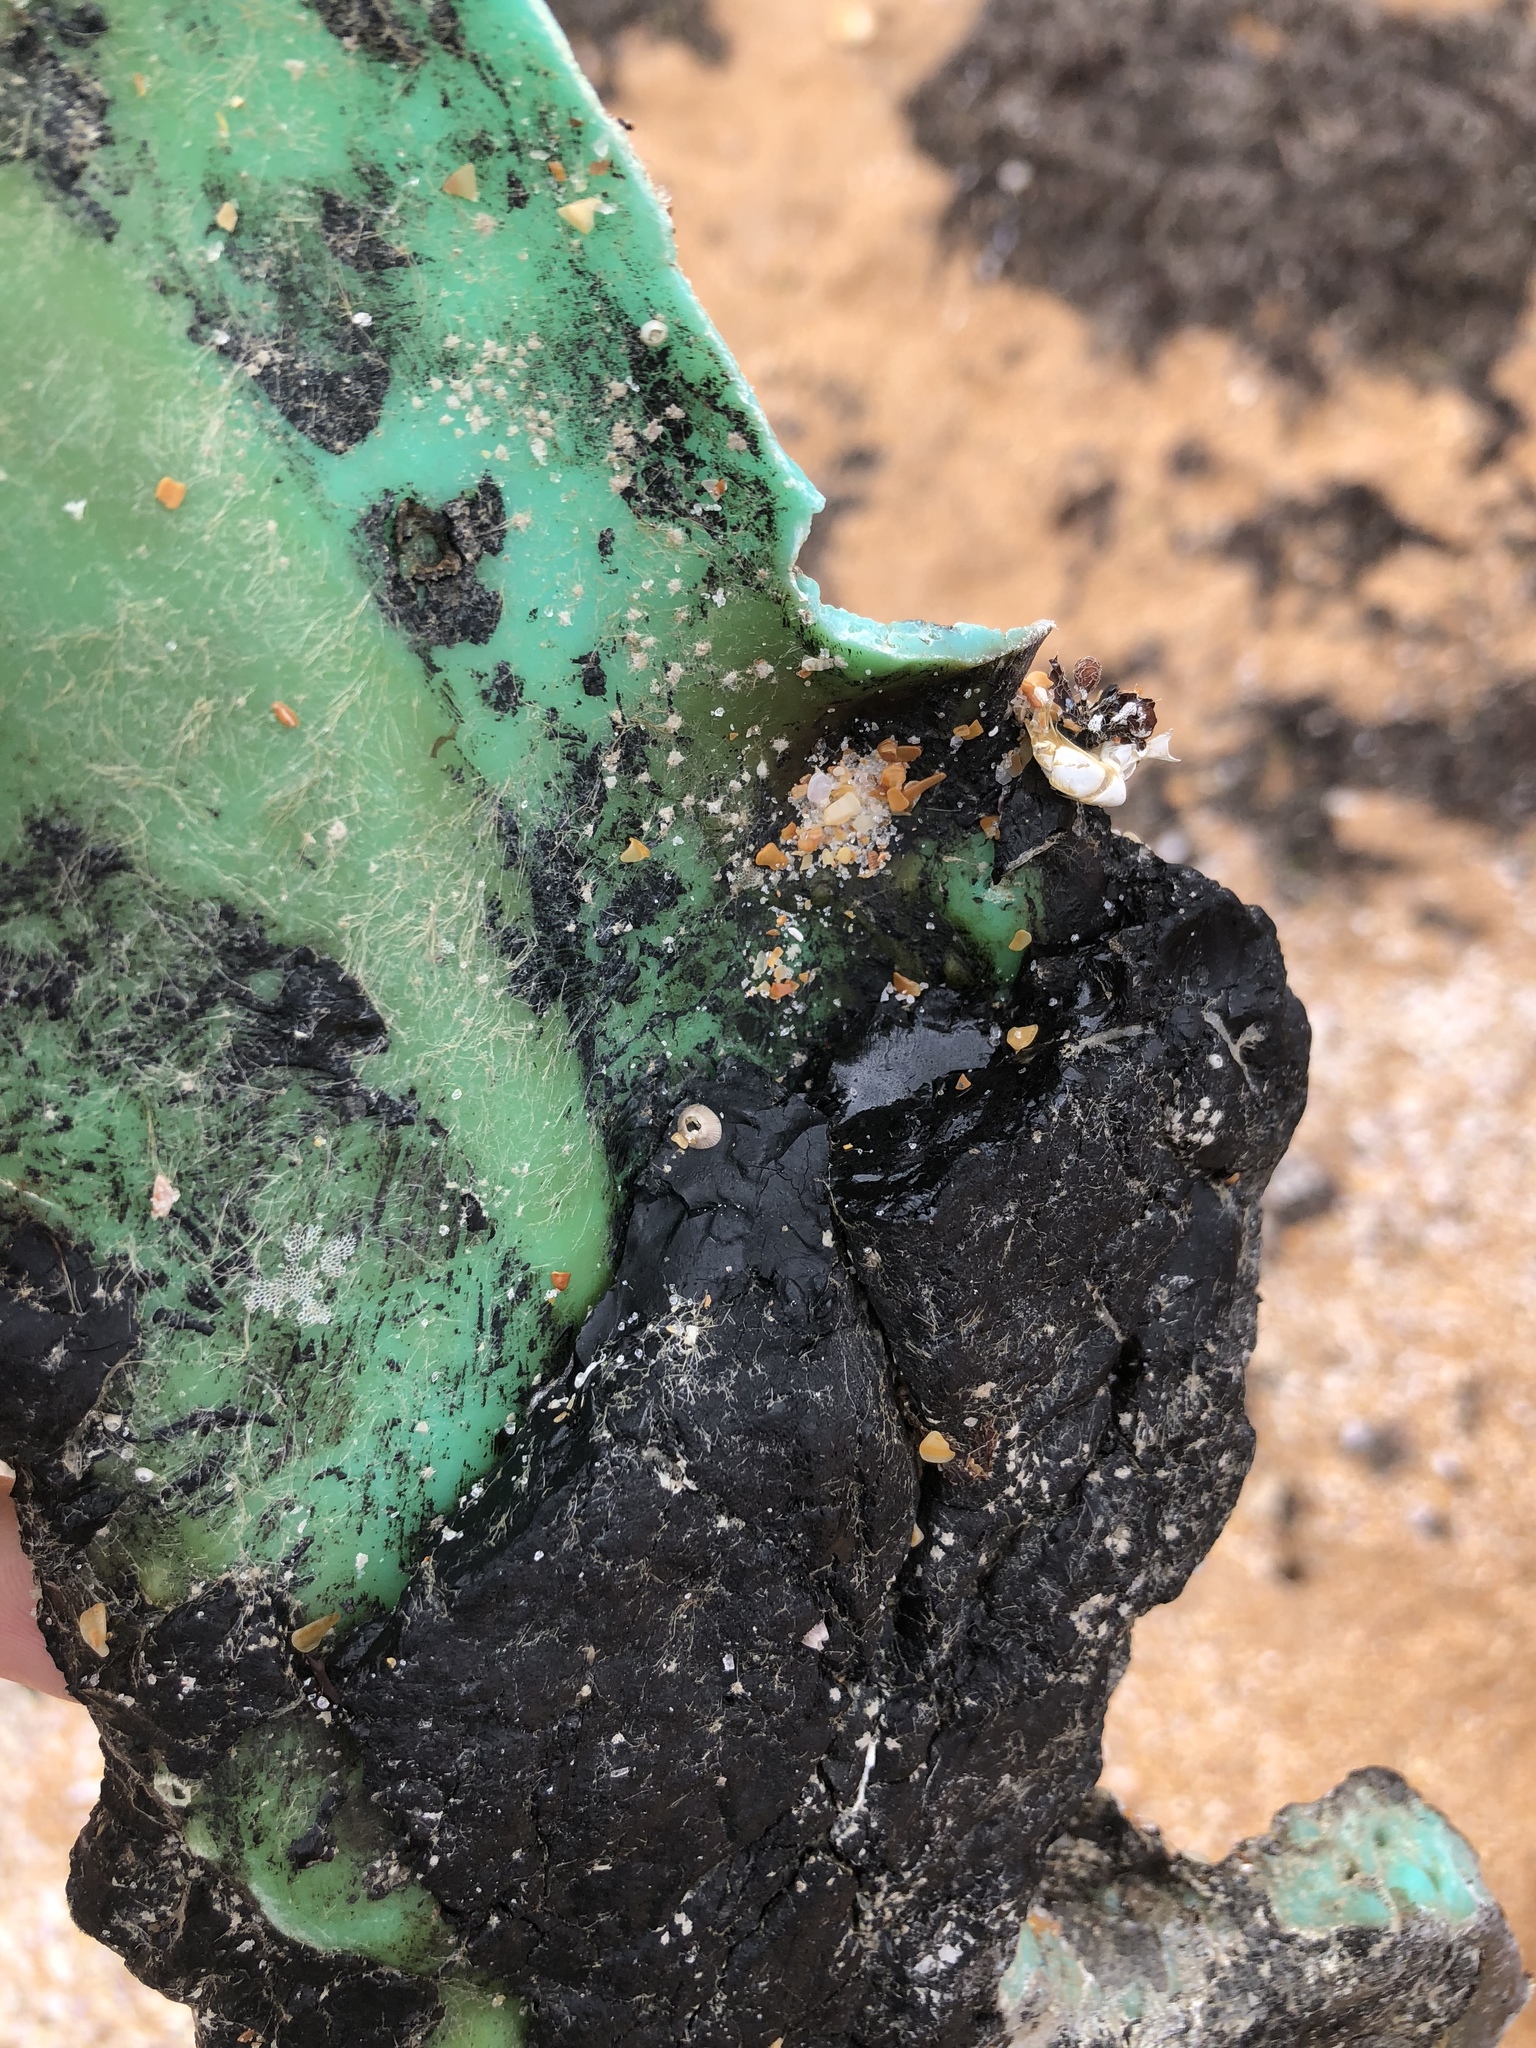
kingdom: Animalia
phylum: Arthropoda
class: Maxillopoda
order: Sessilia
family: Balanidae
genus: Amphibalanus
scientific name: Amphibalanus venustus
